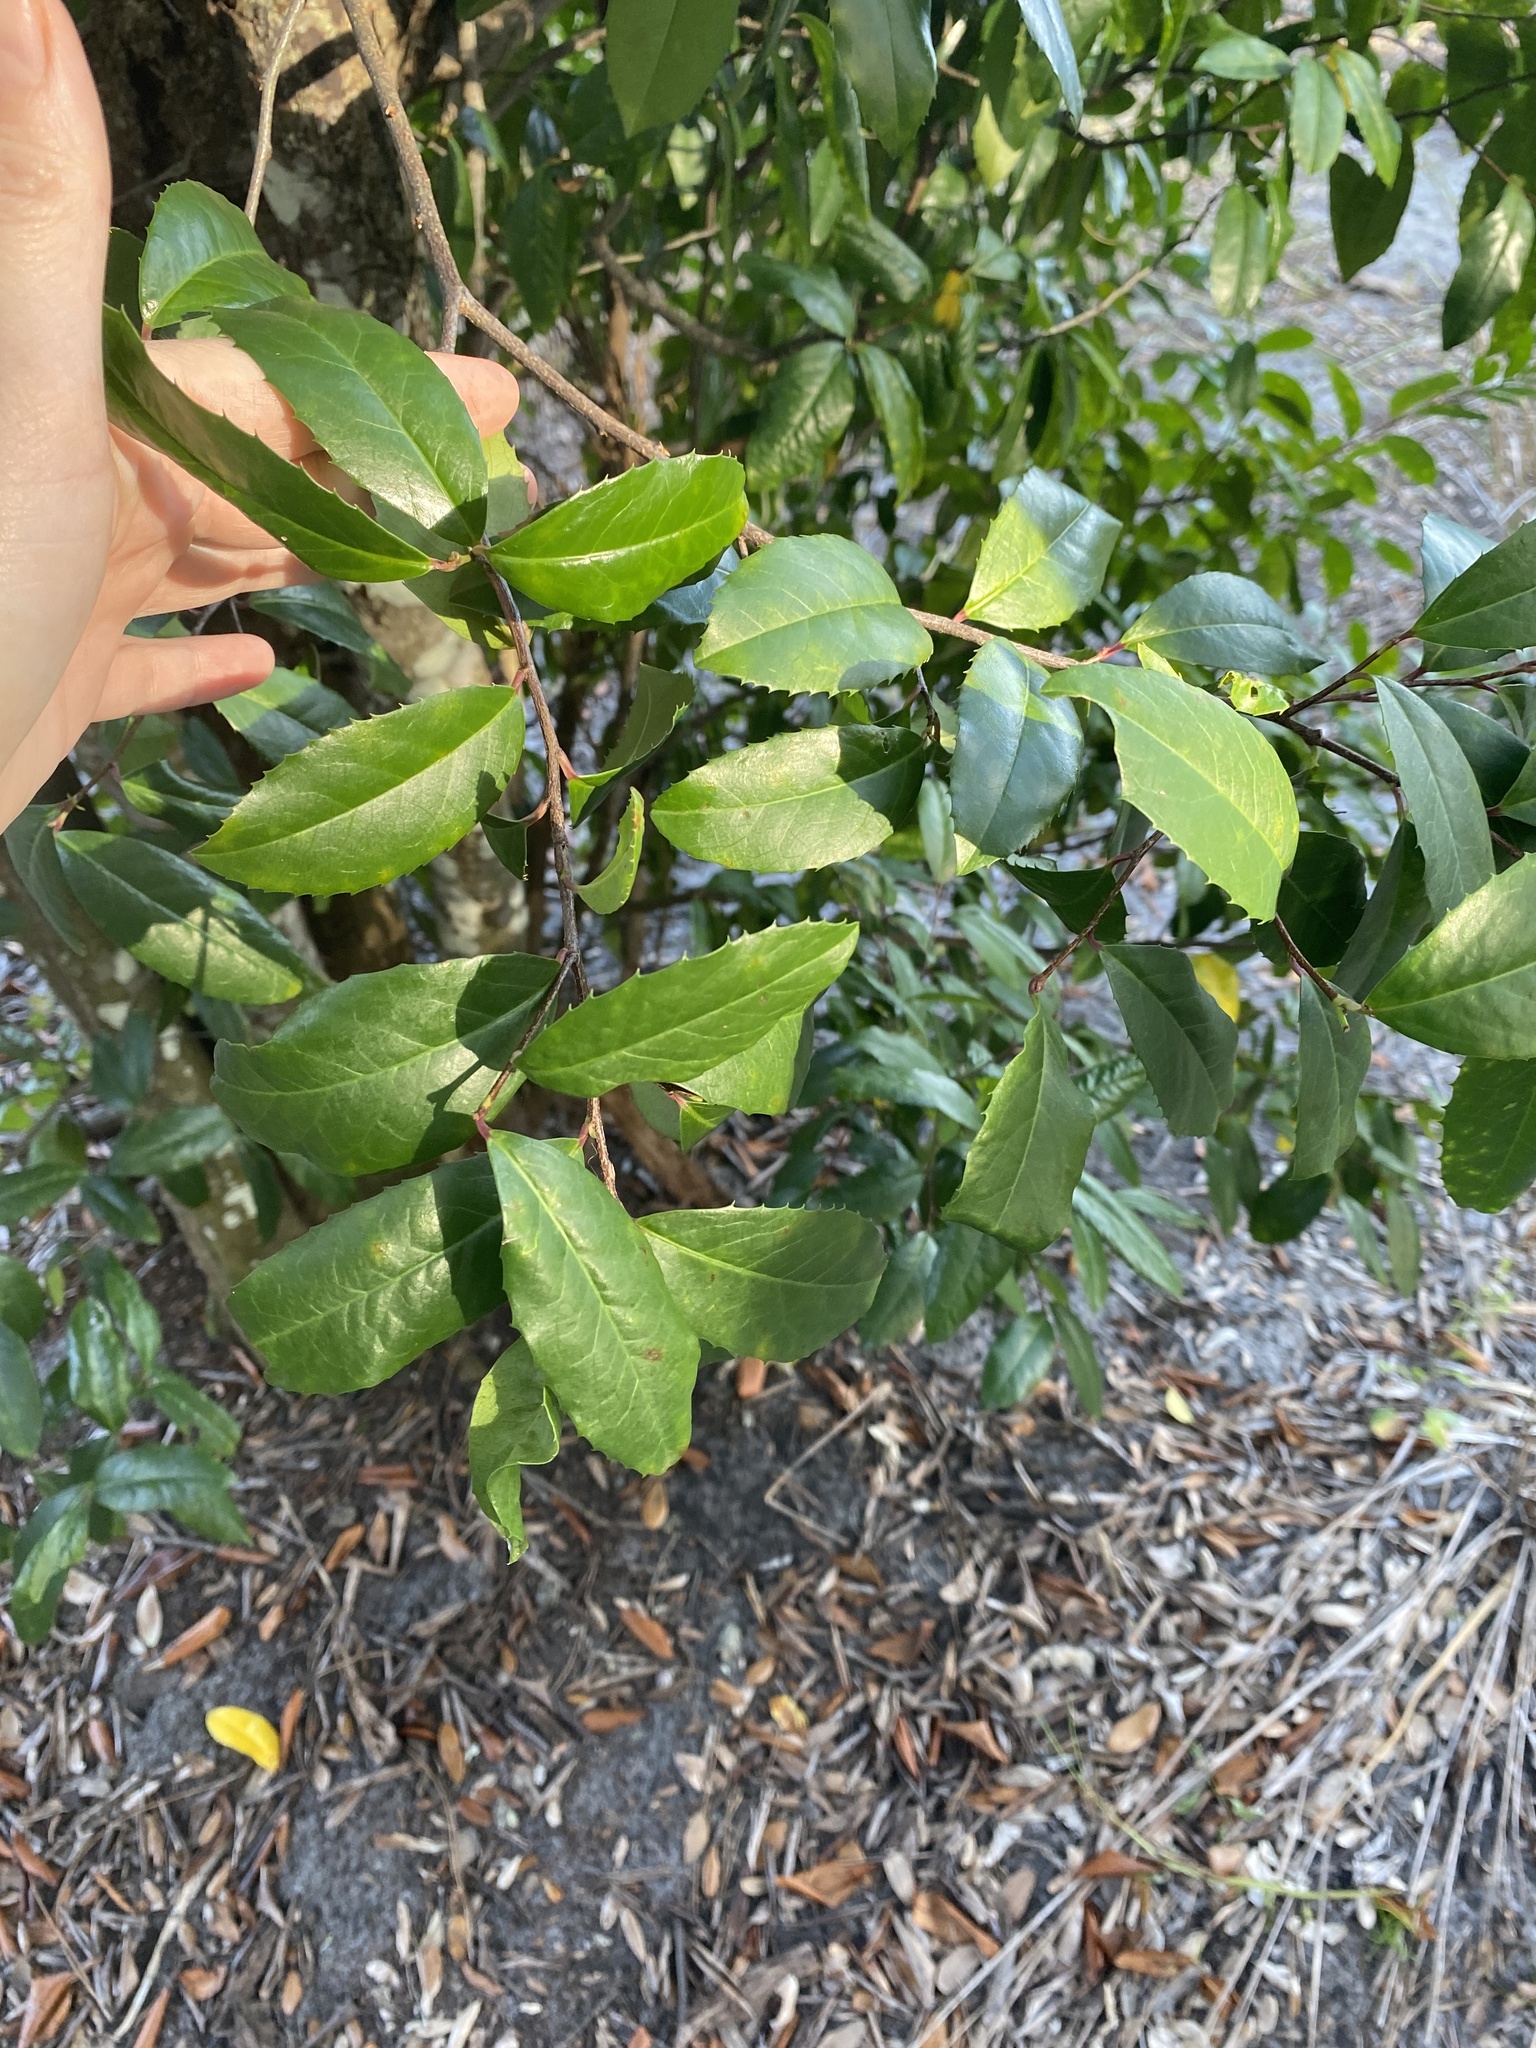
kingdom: Plantae
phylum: Tracheophyta
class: Magnoliopsida
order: Rosales
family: Rosaceae
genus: Prunus
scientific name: Prunus caroliniana
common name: Carolina laurel cherry
